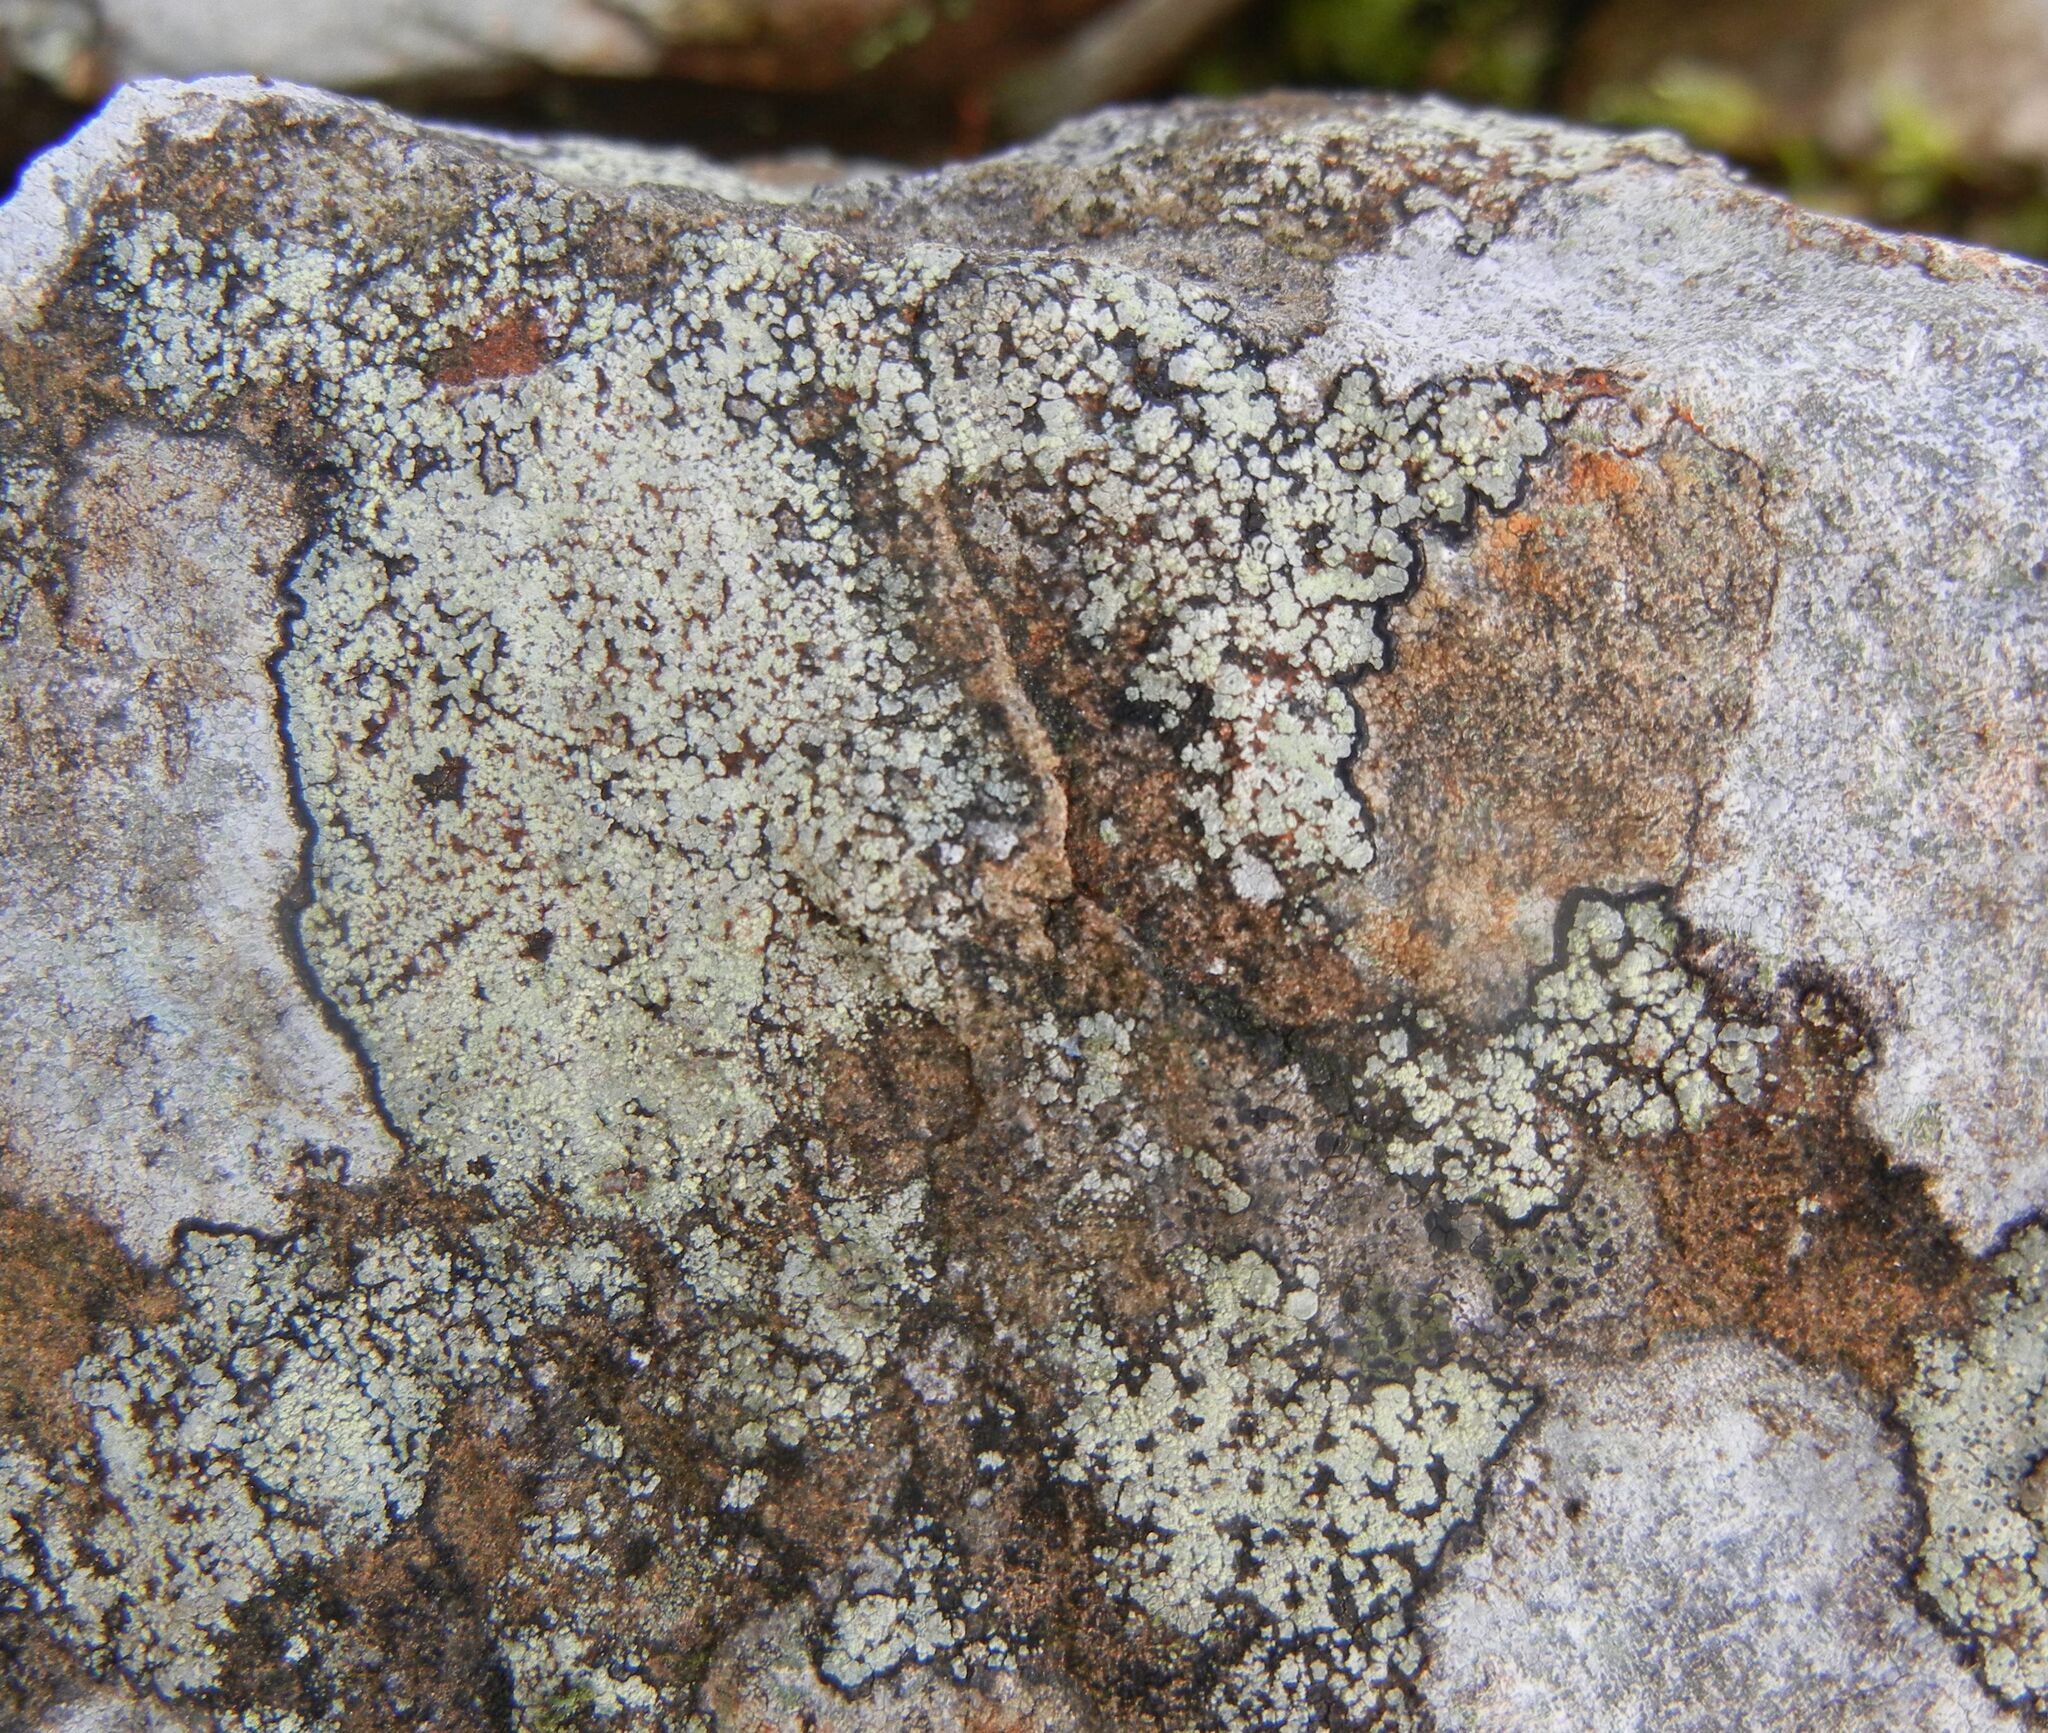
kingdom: Fungi
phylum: Ascomycota
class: Lecanoromycetes
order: Lecanorales
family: Lecanoraceae
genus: Lecanora
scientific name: Lecanora soralifera
